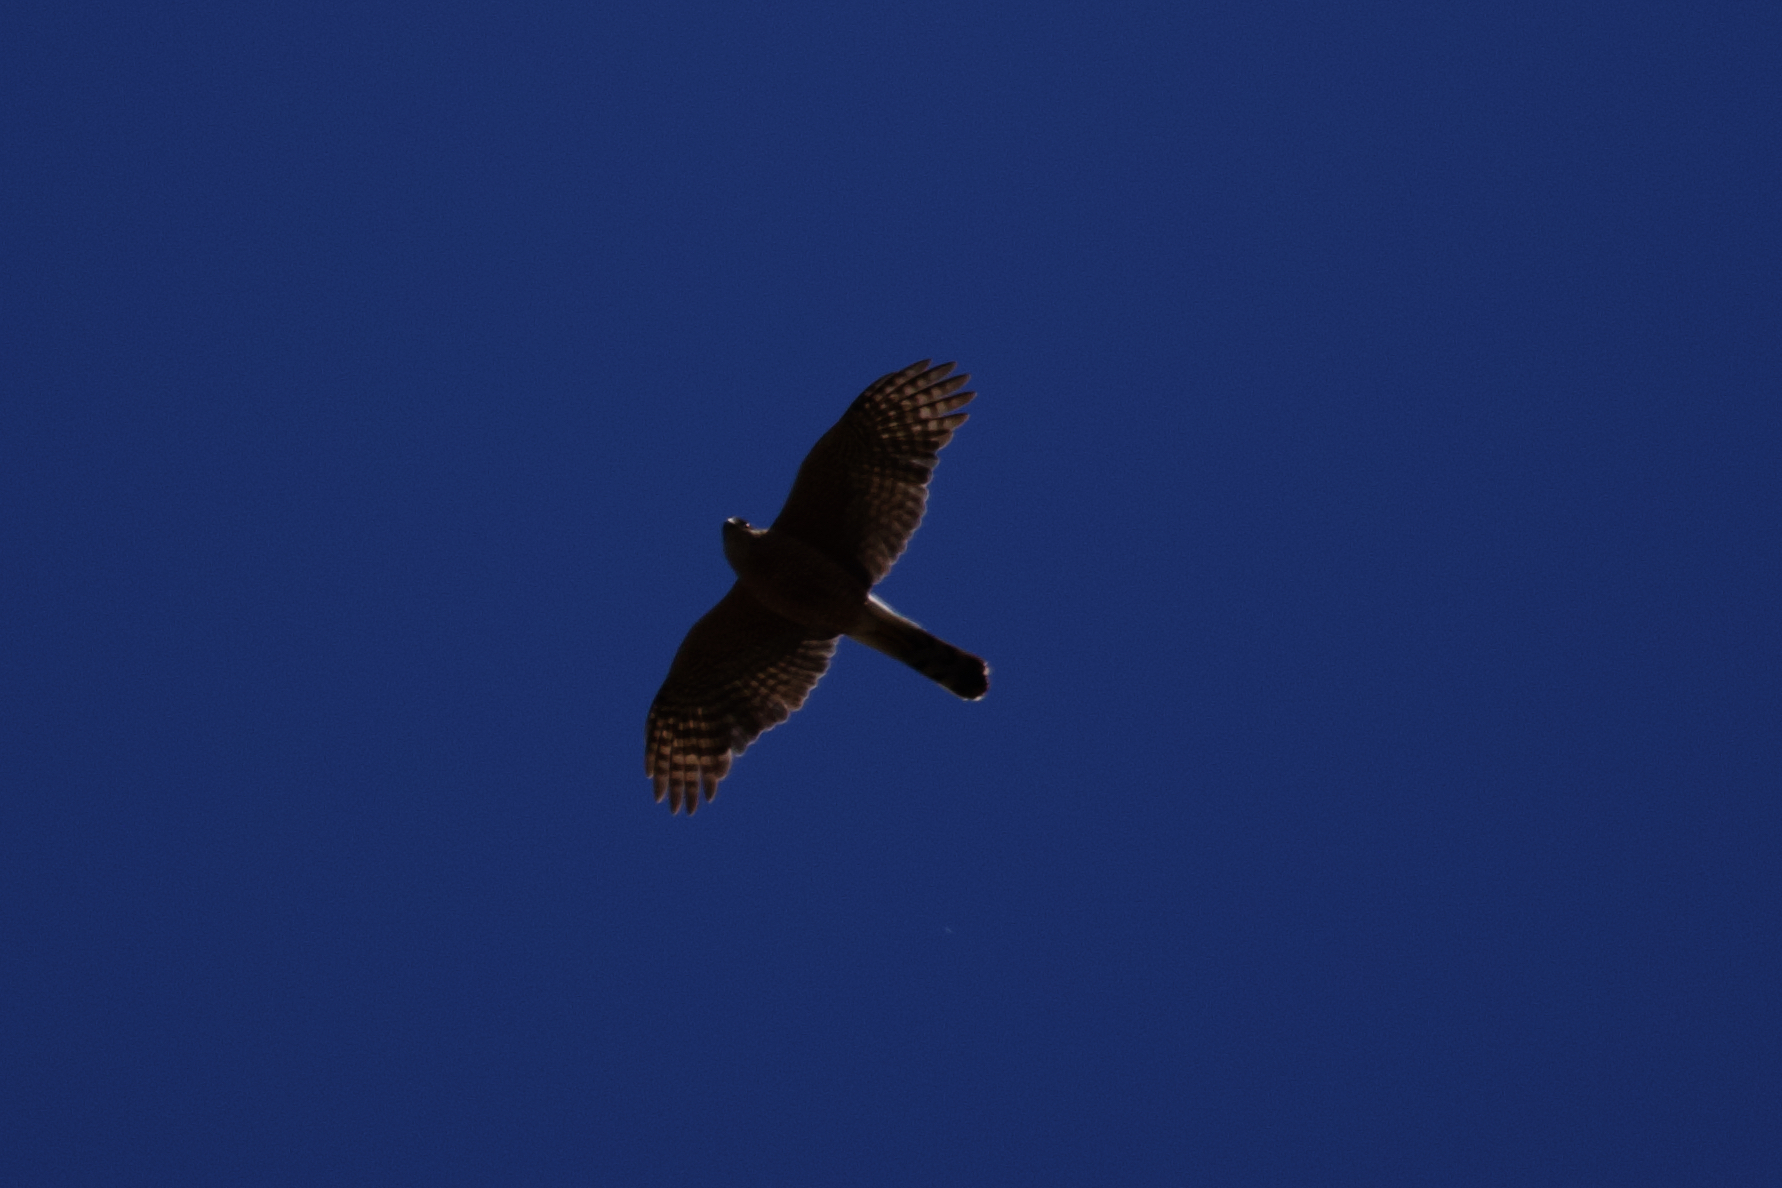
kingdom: Animalia
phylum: Chordata
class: Aves
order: Accipitriformes
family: Accipitridae
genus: Accipiter
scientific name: Accipiter cooperii
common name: Cooper's hawk
